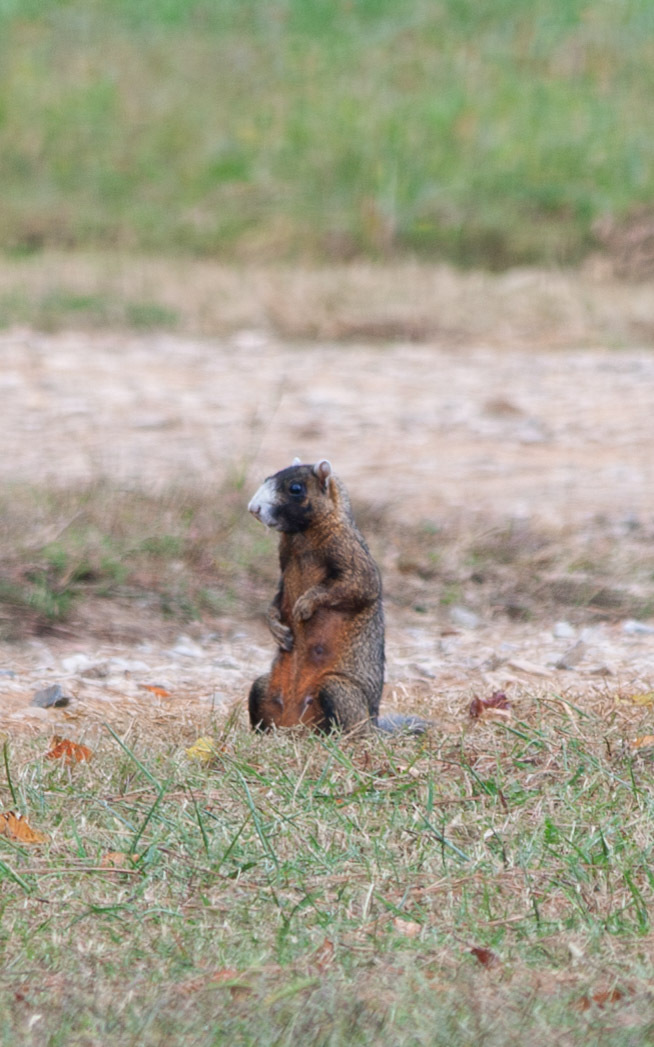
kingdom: Animalia
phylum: Chordata
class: Mammalia
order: Rodentia
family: Sciuridae
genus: Sciurus
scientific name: Sciurus niger
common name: Fox squirrel
